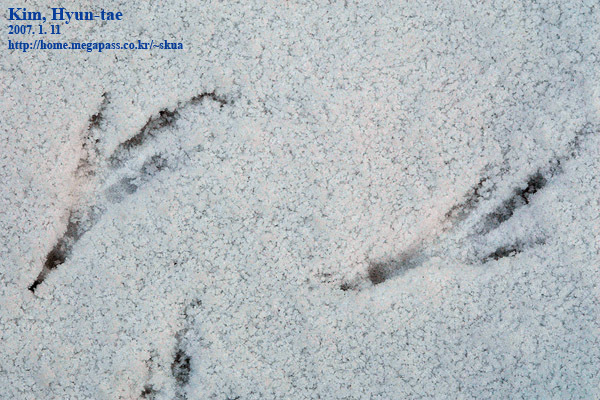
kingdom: Animalia
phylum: Chordata
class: Aves
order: Passeriformes
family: Corvidae
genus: Pica
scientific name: Pica serica
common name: Oriental magpie
